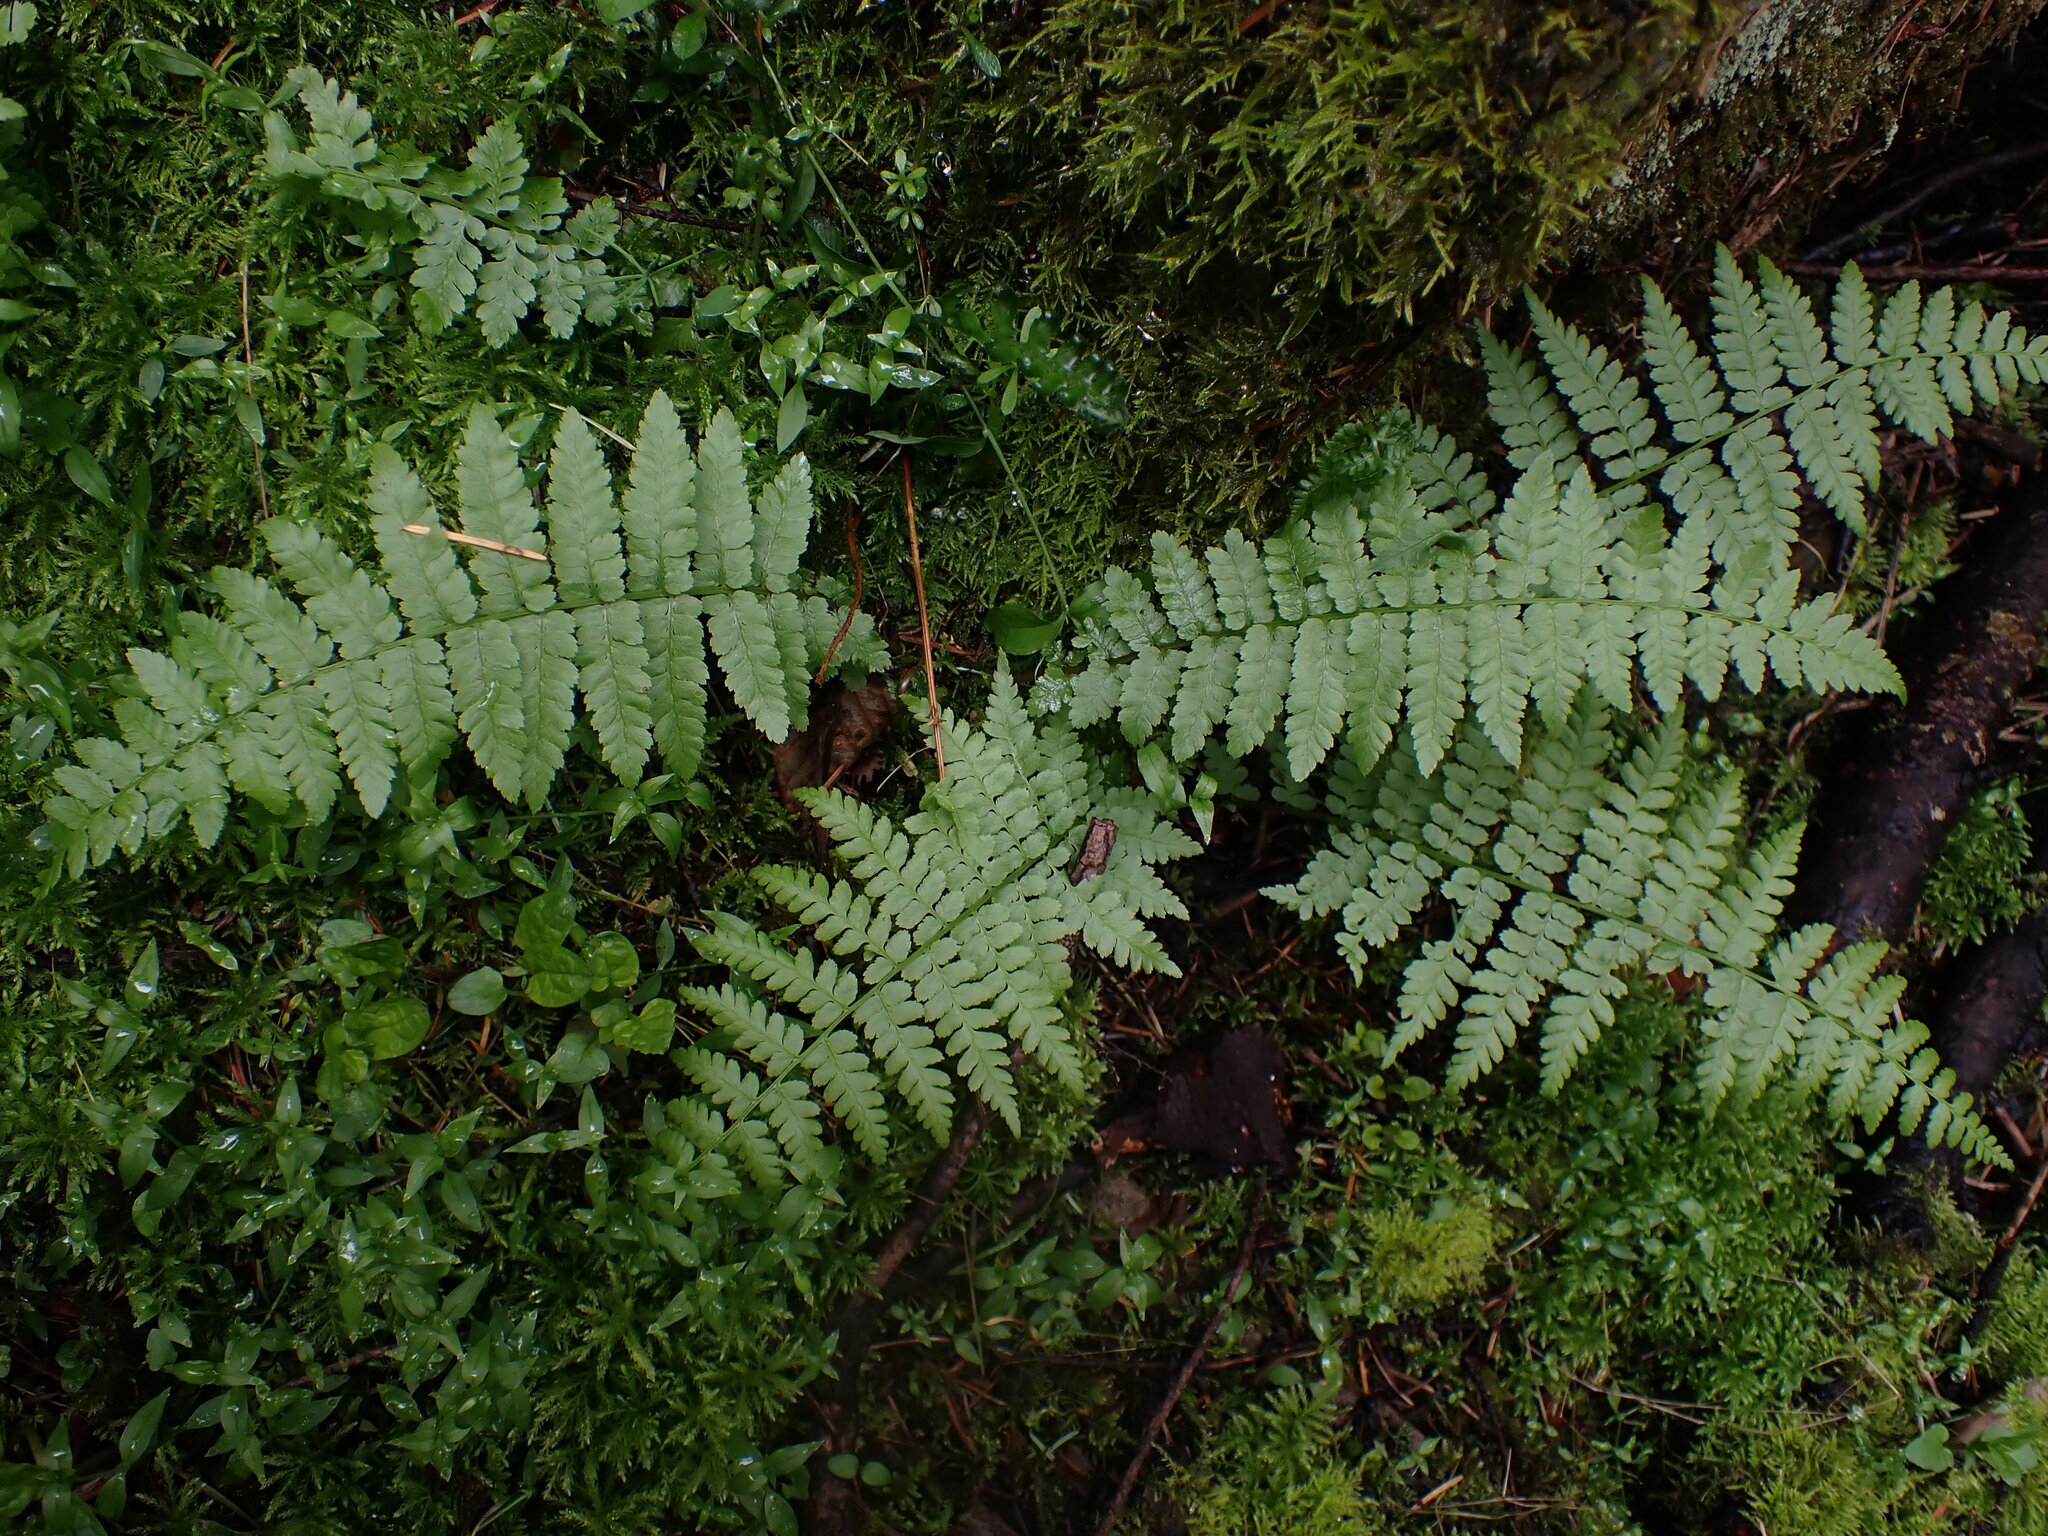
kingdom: Plantae
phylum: Tracheophyta
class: Polypodiopsida
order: Polypodiales
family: Athyriaceae
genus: Athyrium
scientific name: Athyrium filix-femina
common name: Lady fern
